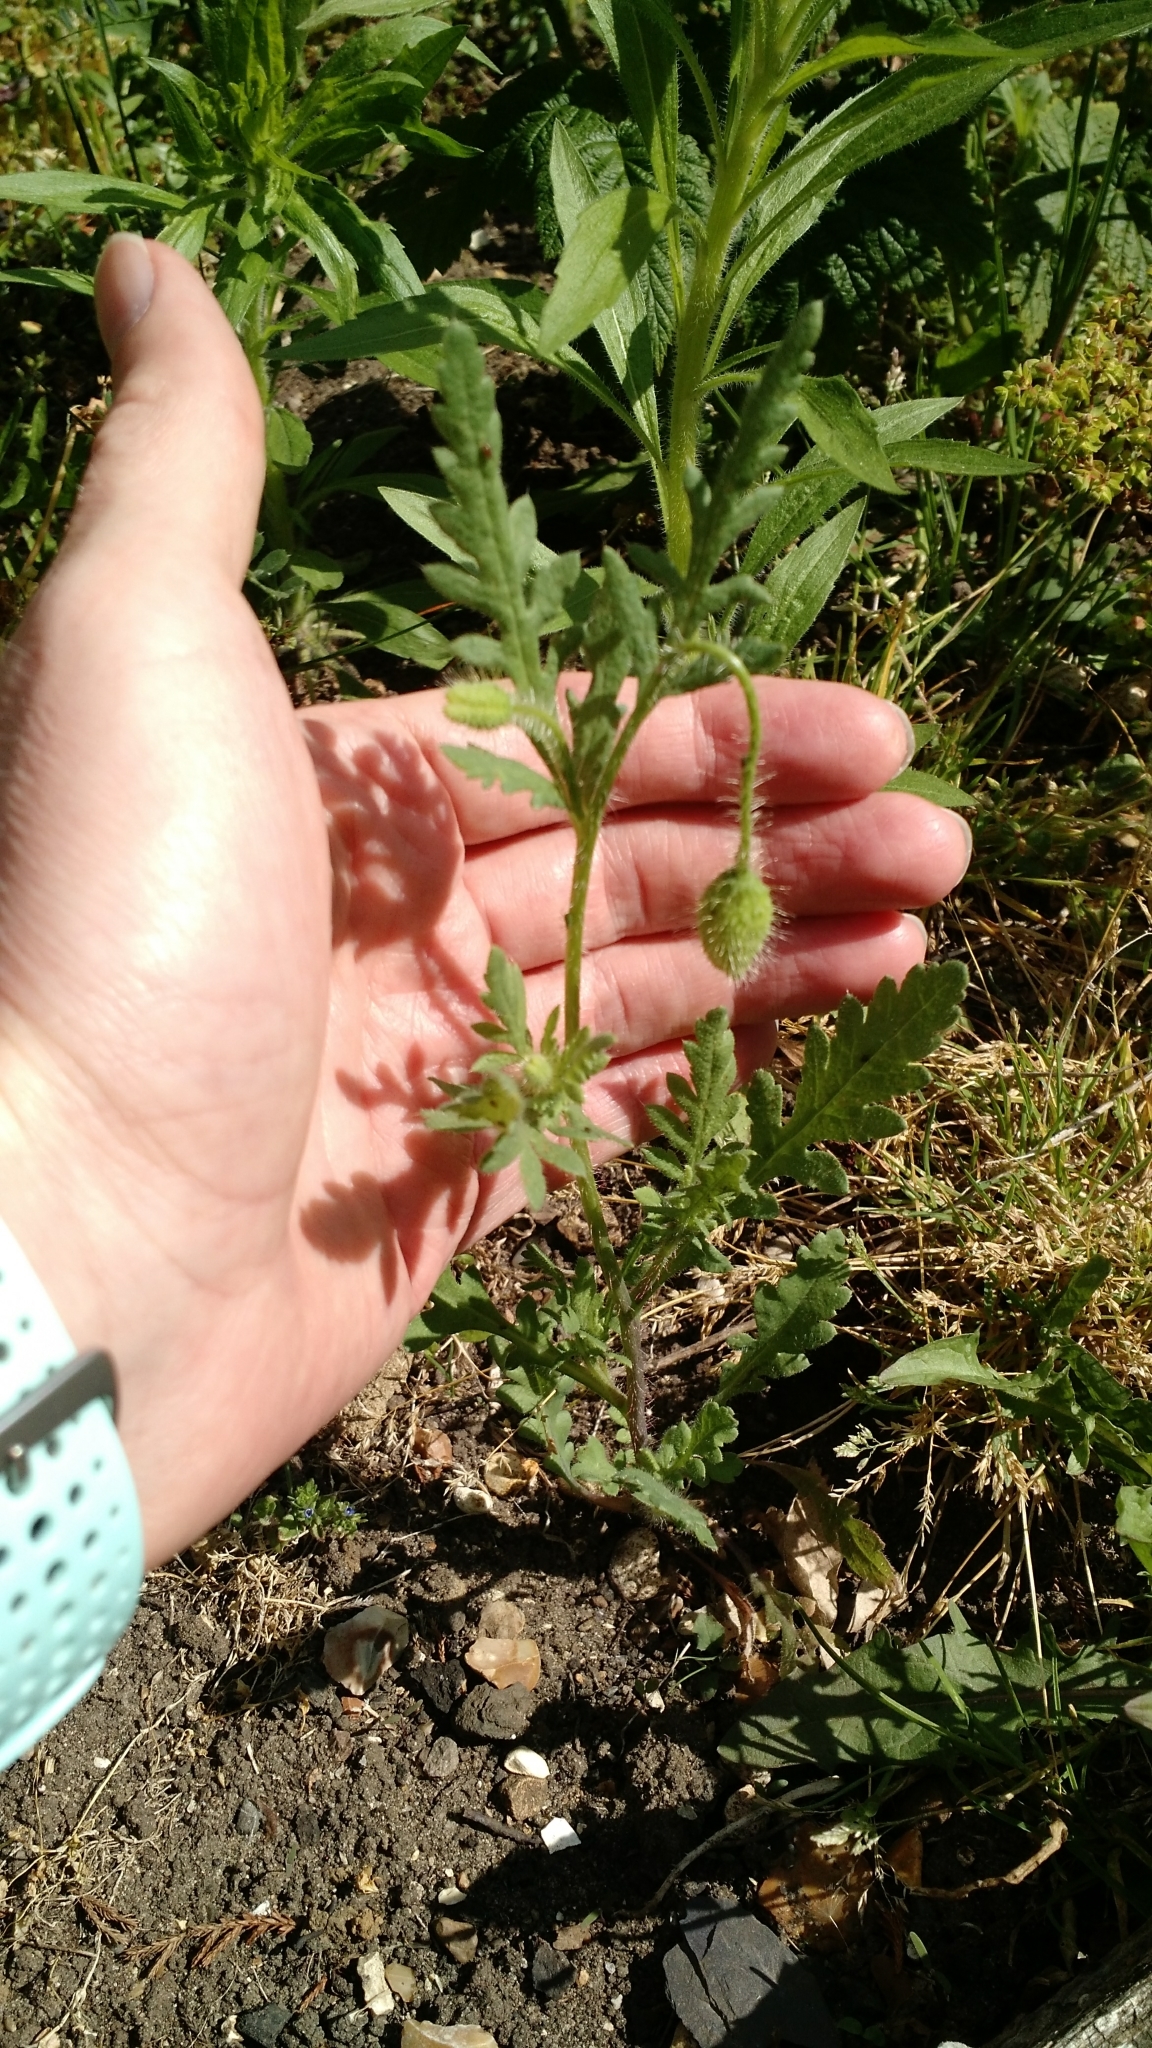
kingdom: Plantae
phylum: Tracheophyta
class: Magnoliopsida
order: Ranunculales
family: Papaveraceae
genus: Papaver
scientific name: Papaver rhoeas
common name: Corn poppy
